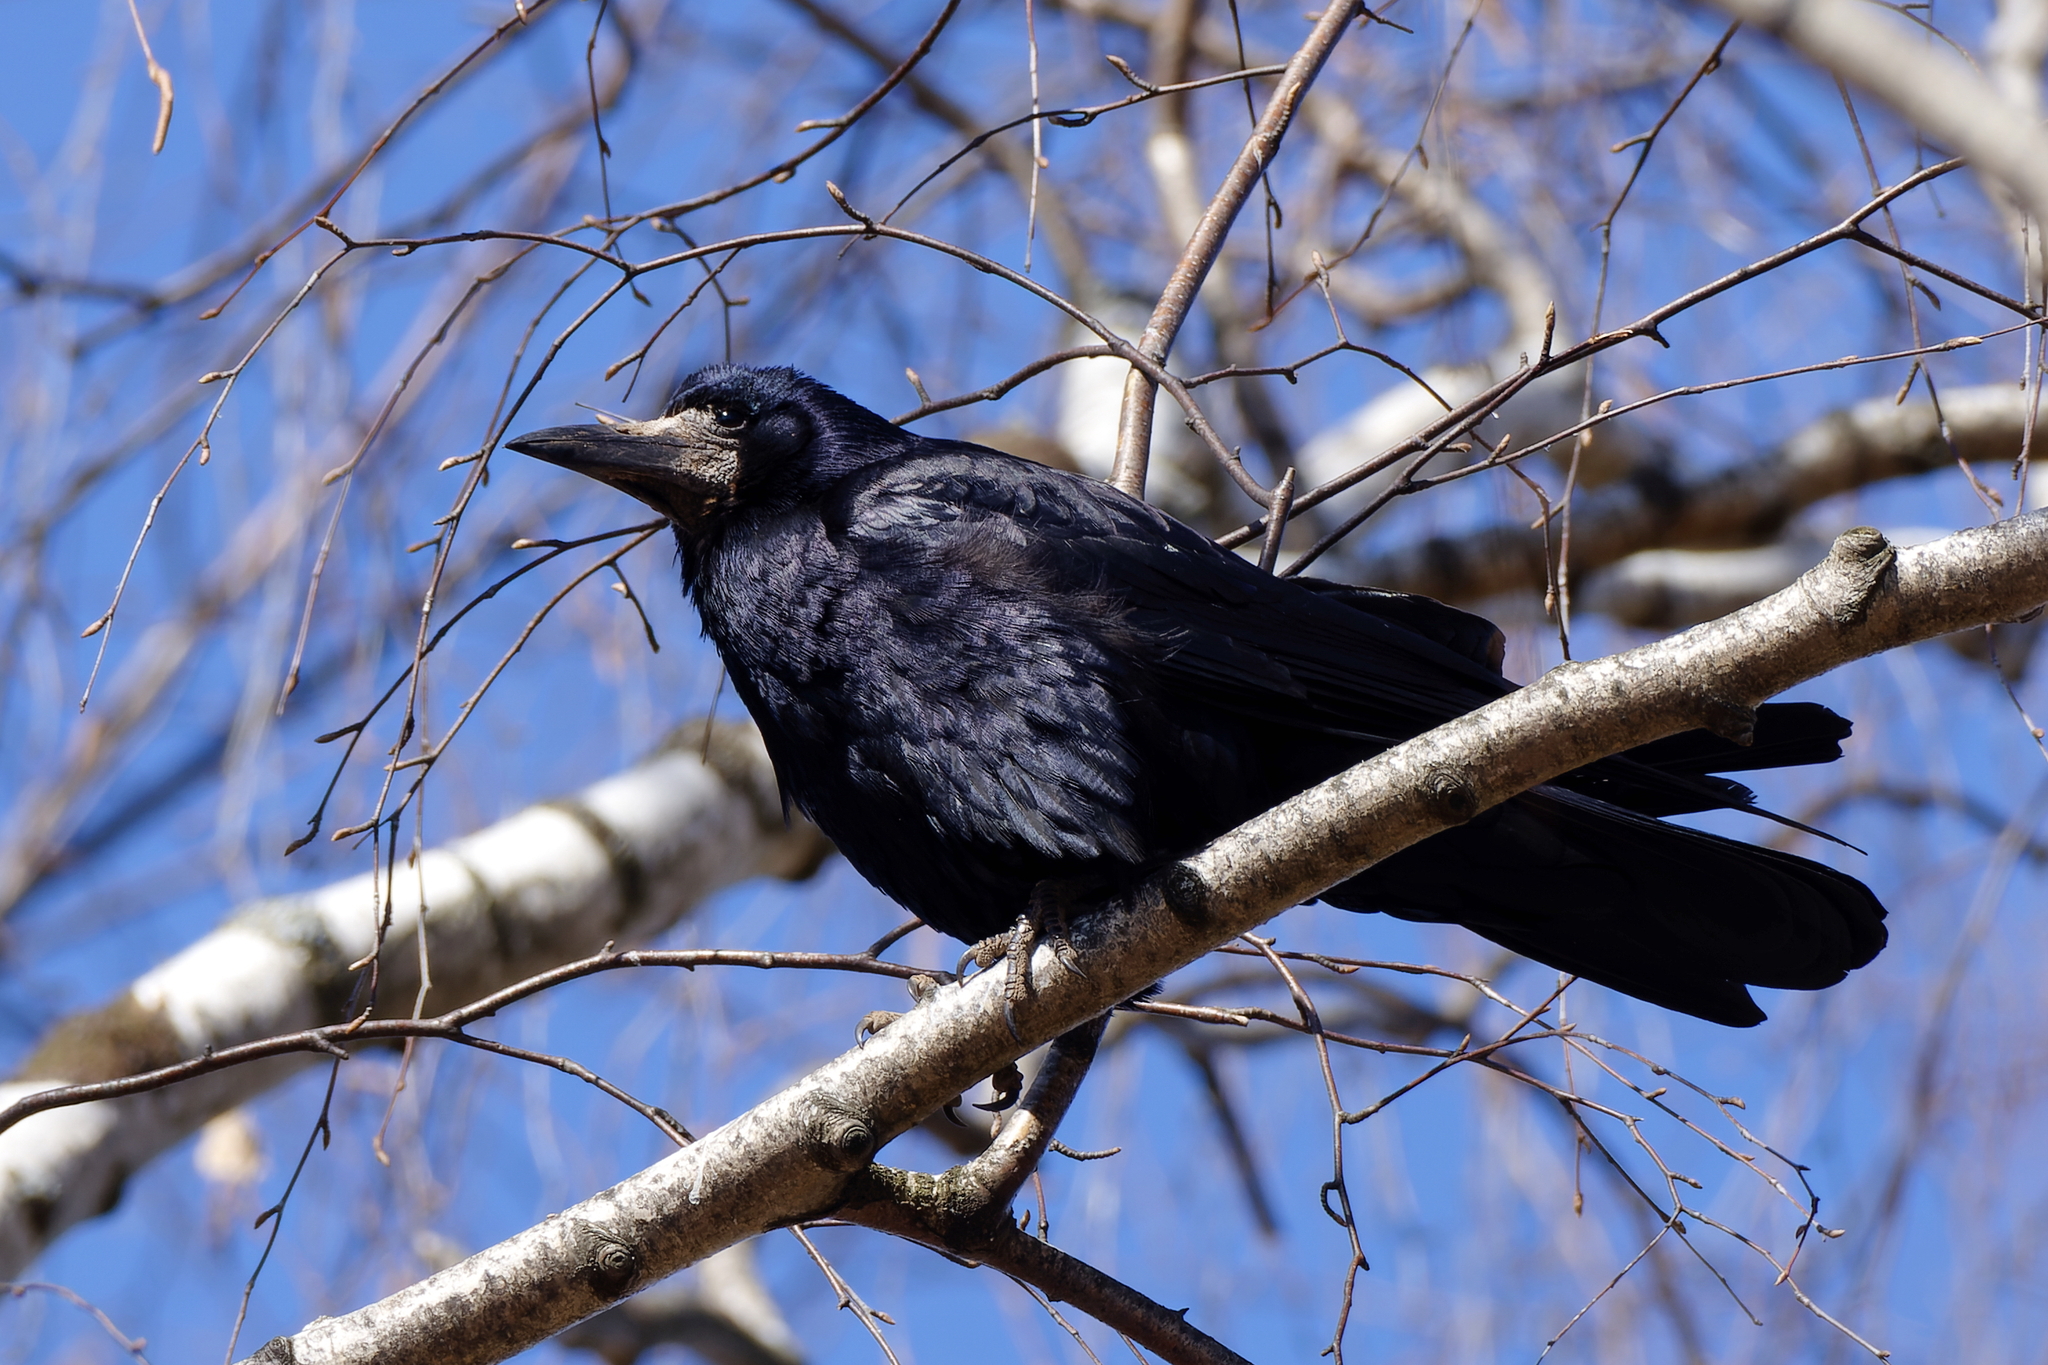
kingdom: Animalia
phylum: Chordata
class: Aves
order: Passeriformes
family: Corvidae
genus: Corvus
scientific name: Corvus frugilegus
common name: Rook
